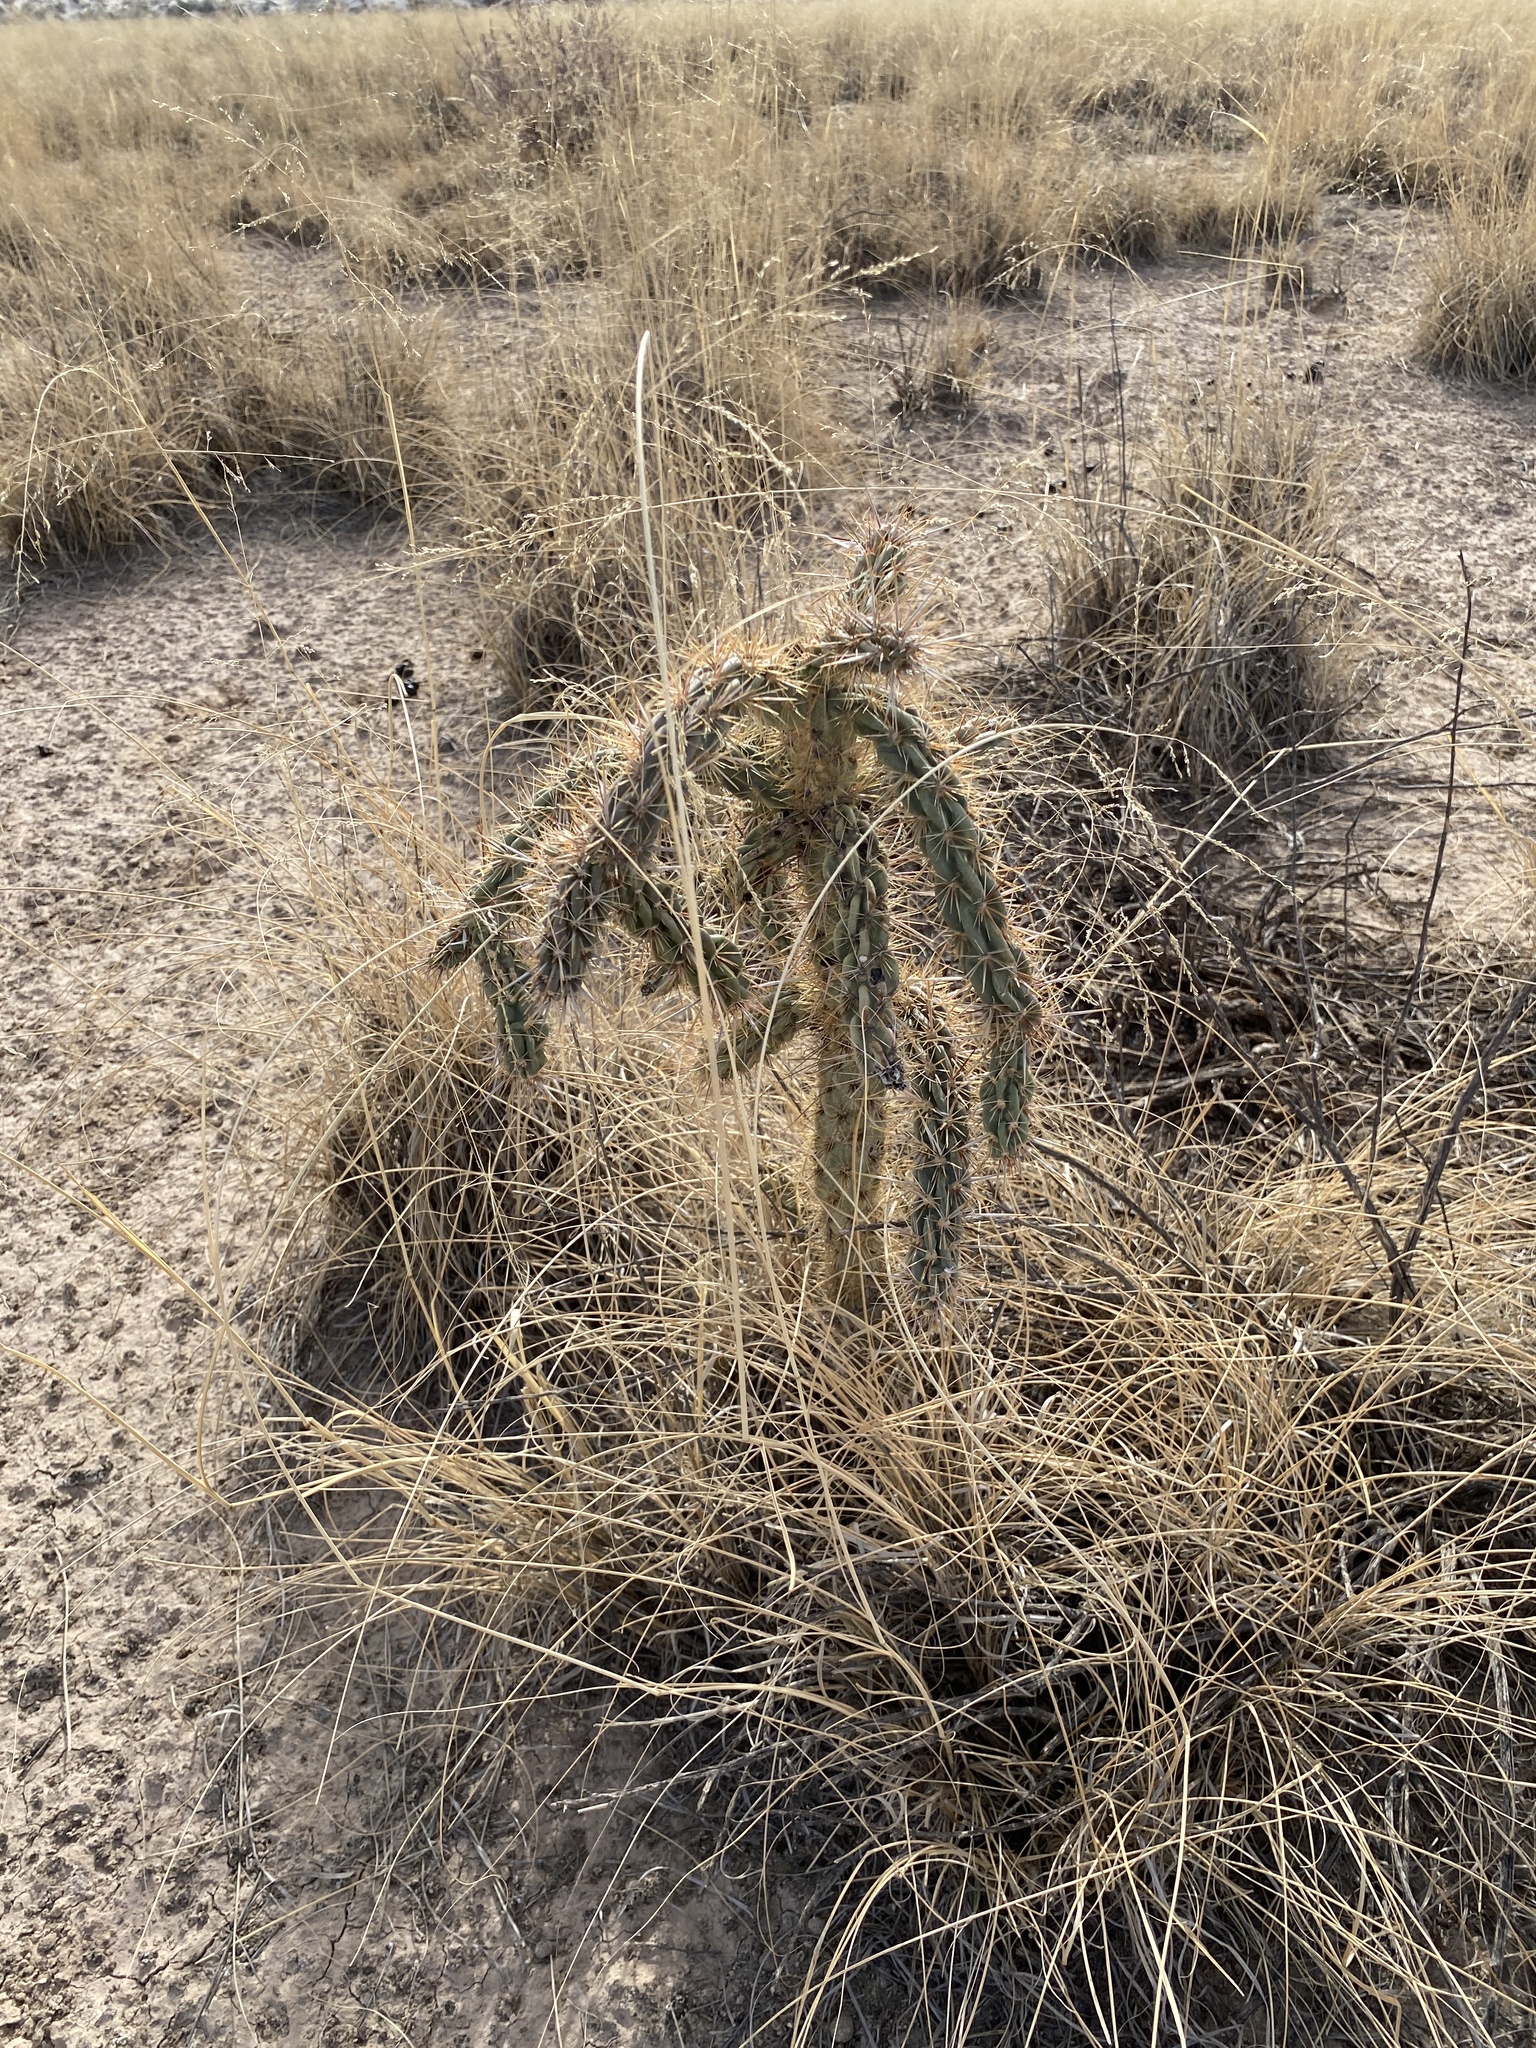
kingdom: Plantae
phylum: Tracheophyta
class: Magnoliopsida
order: Caryophyllales
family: Cactaceae
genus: Cylindropuntia
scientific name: Cylindropuntia imbricata
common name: Candelabrum cactus
